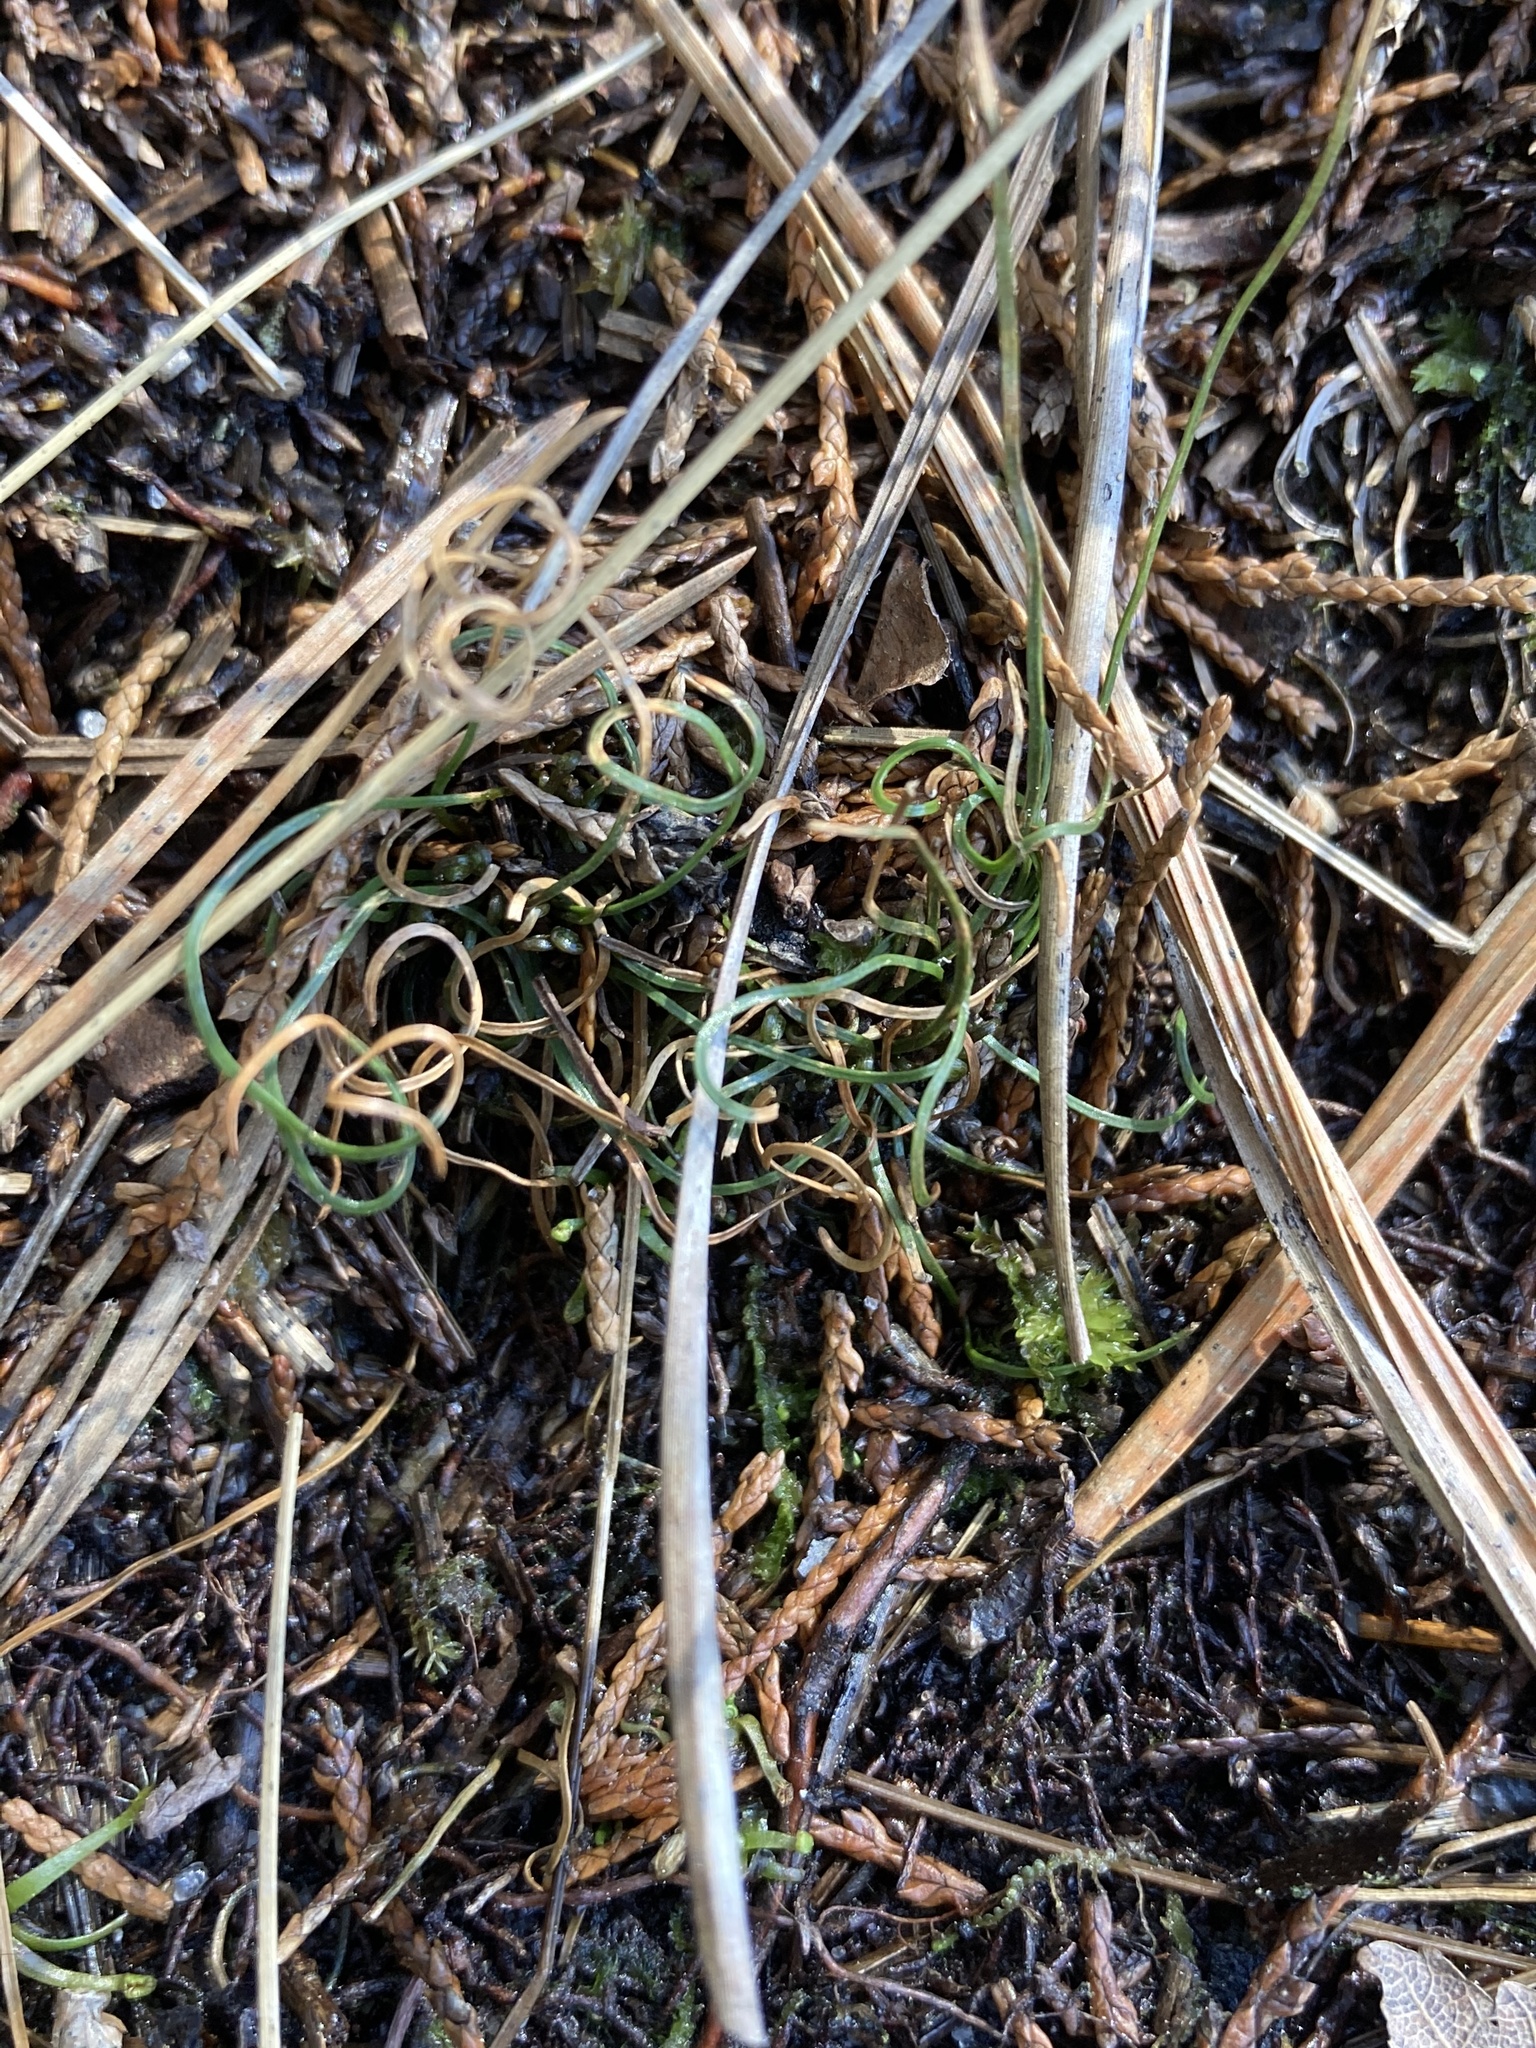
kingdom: Plantae
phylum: Tracheophyta
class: Polypodiopsida
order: Schizaeales
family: Schizaeaceae
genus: Schizaea
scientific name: Schizaea pusilla
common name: Curly-grass fern
